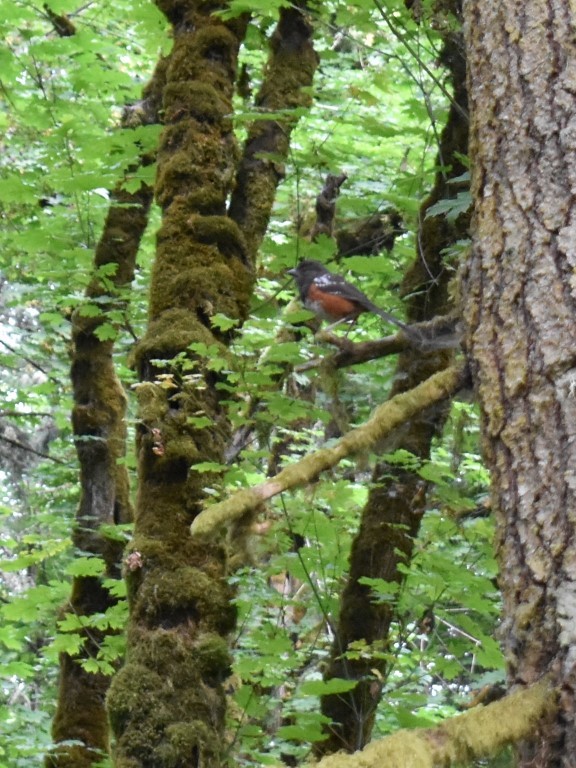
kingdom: Animalia
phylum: Chordata
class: Aves
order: Passeriformes
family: Passerellidae
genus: Pipilo
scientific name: Pipilo maculatus
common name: Spotted towhee
